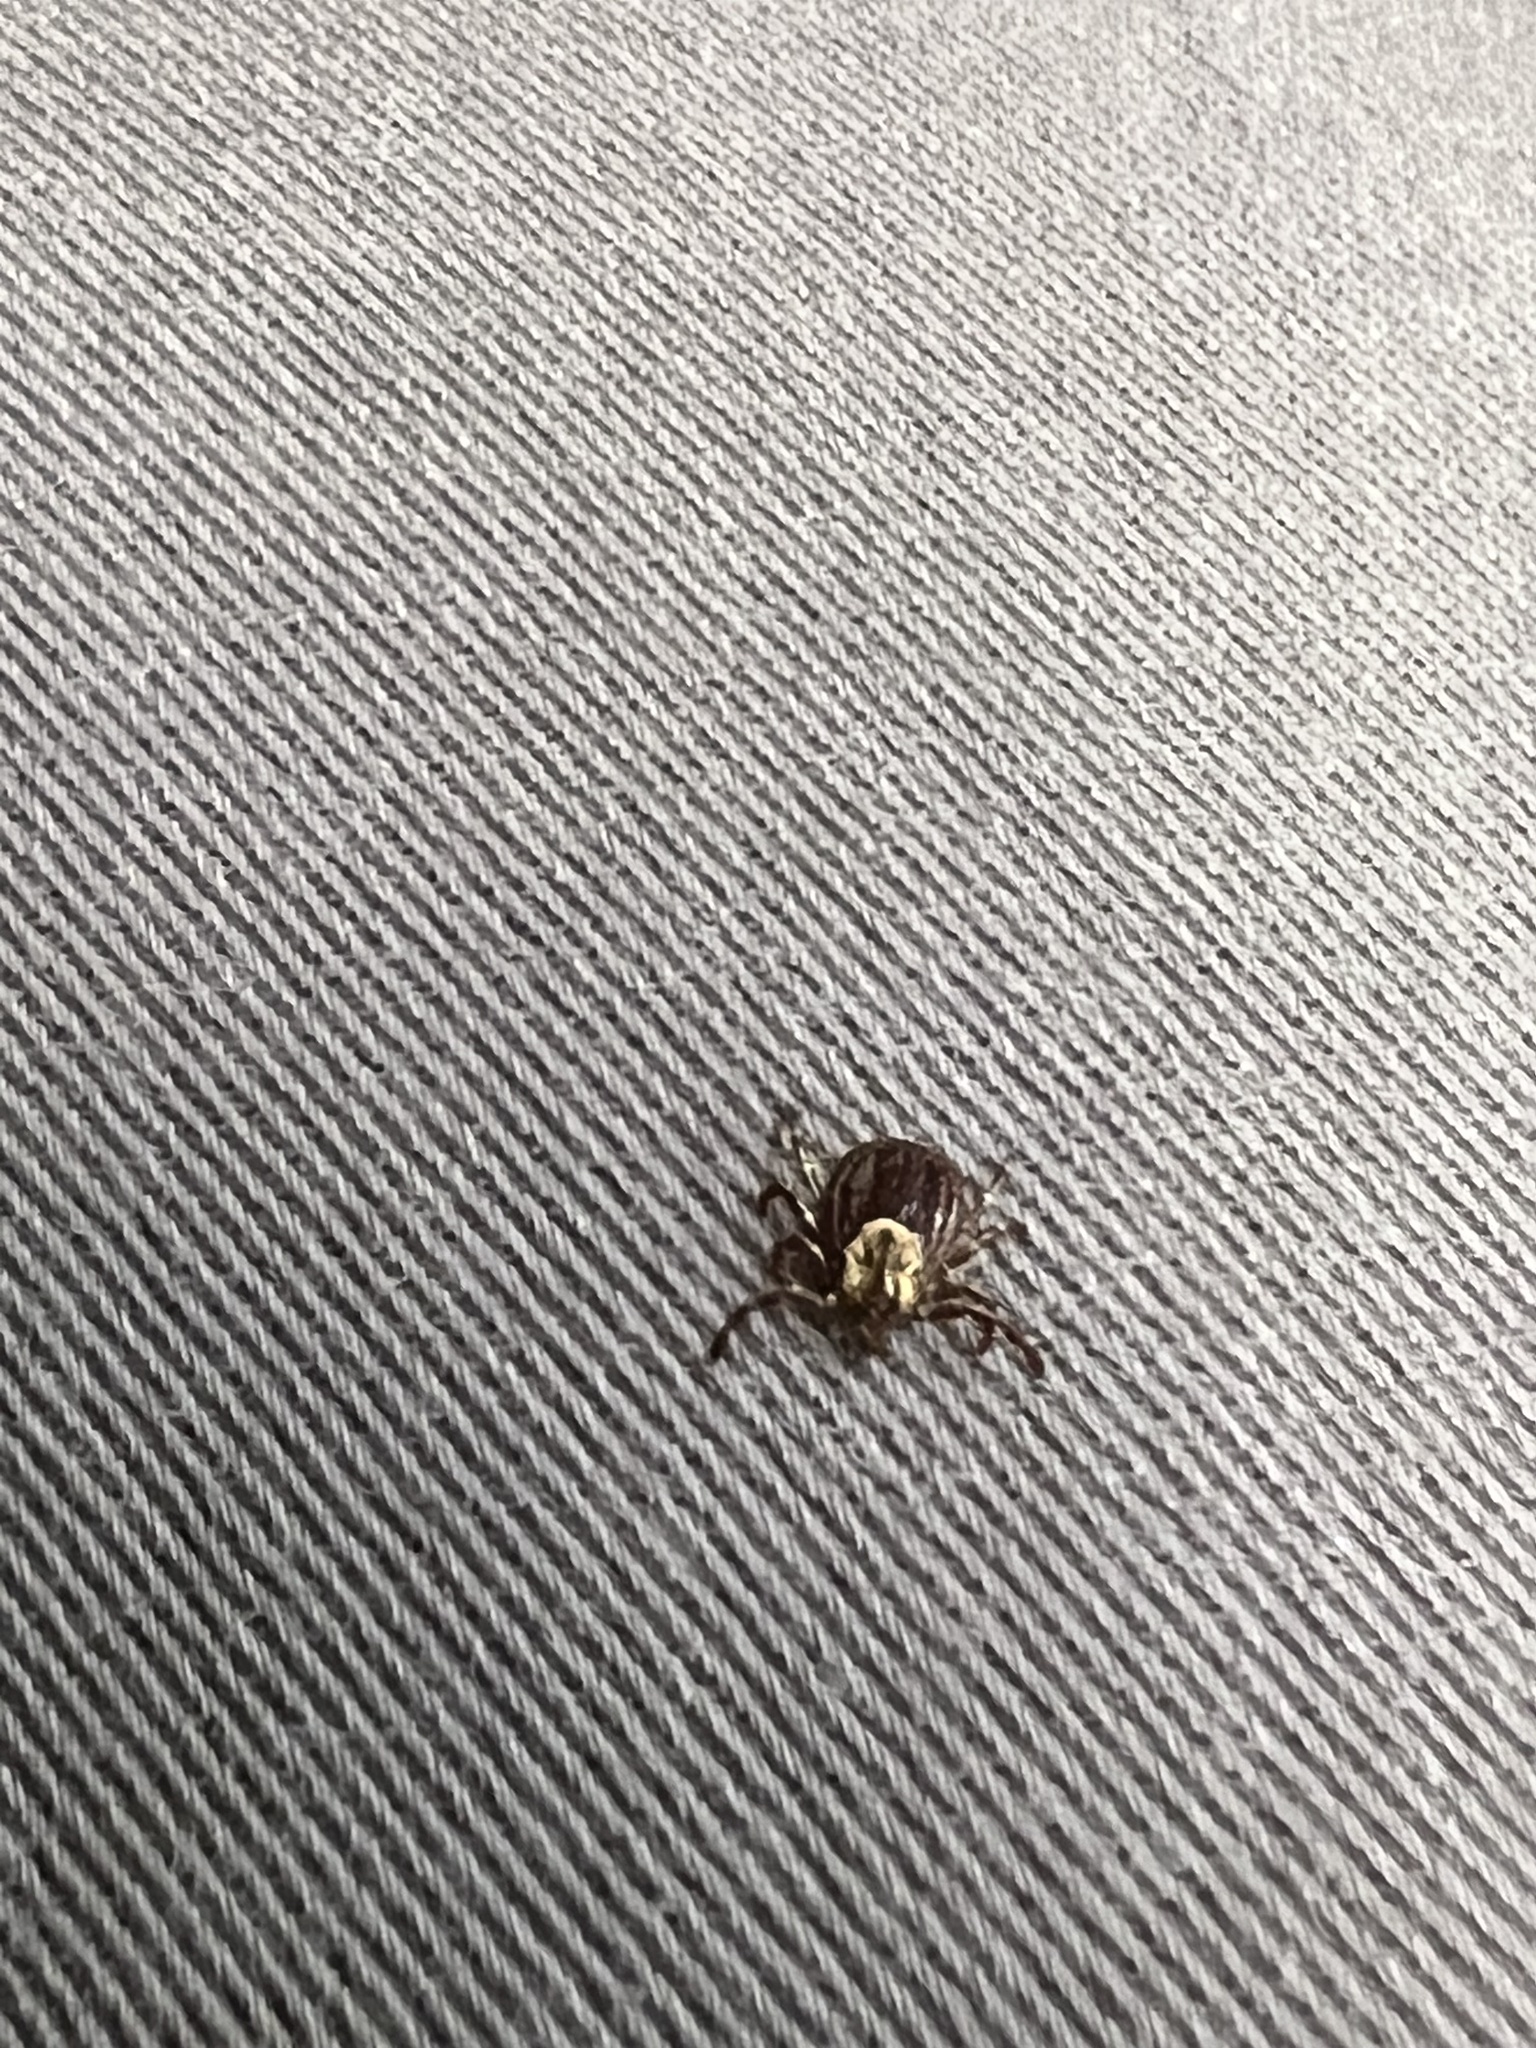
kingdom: Animalia
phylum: Arthropoda
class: Arachnida
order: Ixodida
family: Ixodidae
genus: Dermacentor
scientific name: Dermacentor variabilis
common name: American dog tick
